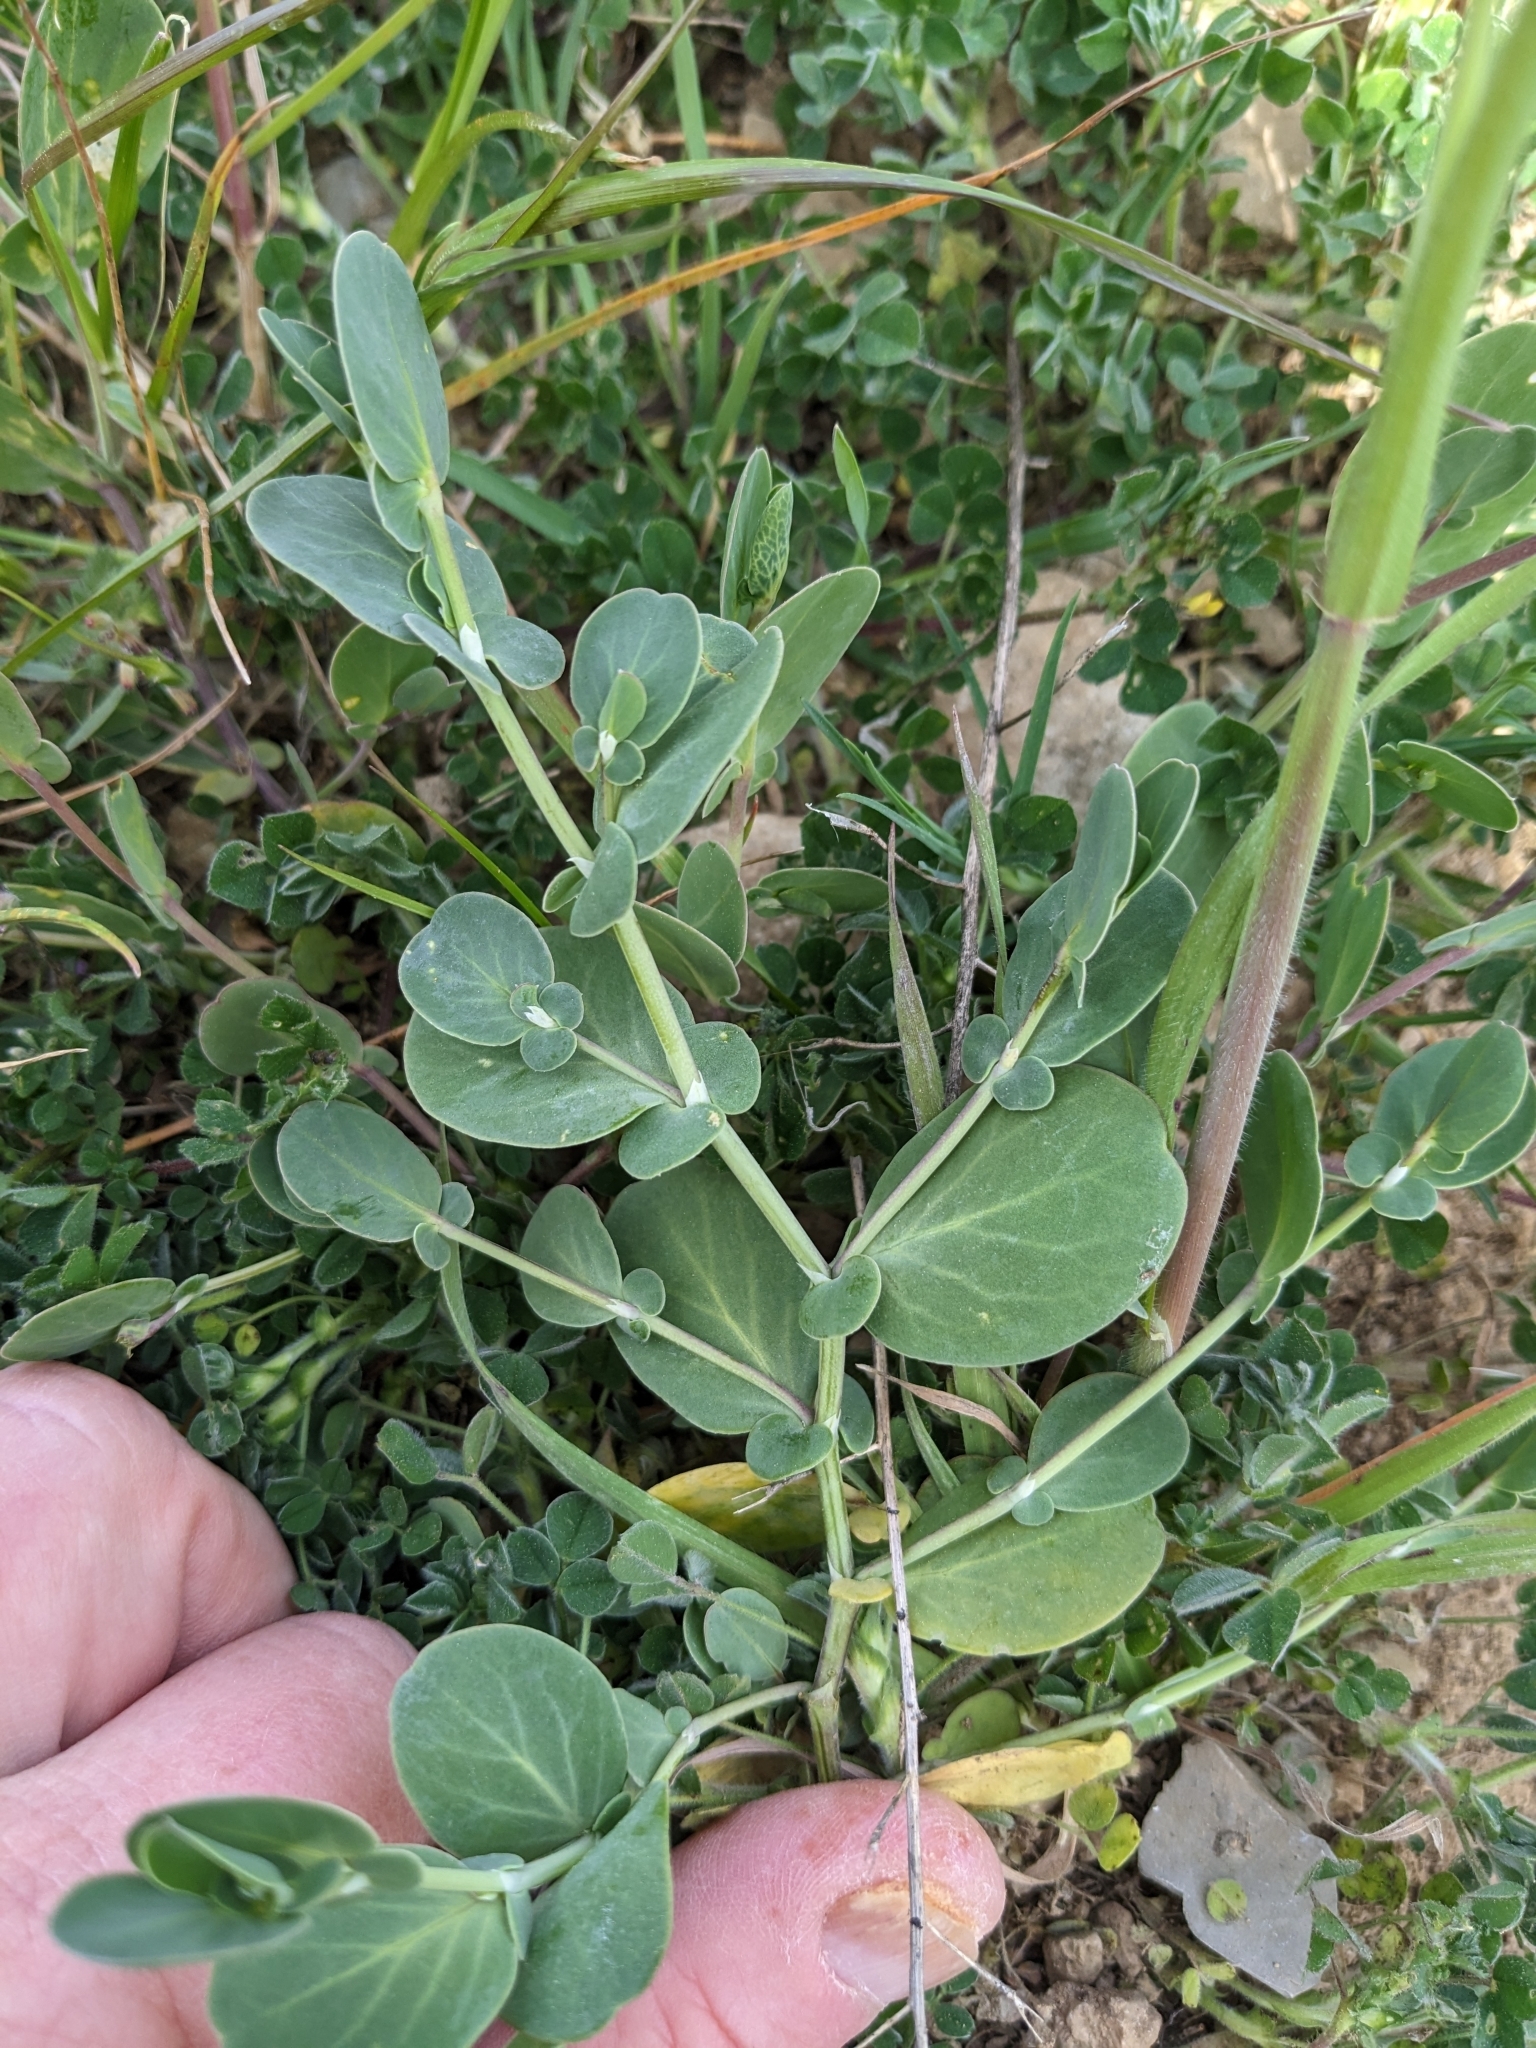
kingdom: Plantae
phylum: Tracheophyta
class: Magnoliopsida
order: Fabales
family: Fabaceae
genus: Coronilla
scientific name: Coronilla scorpioides
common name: Annual scorpion-vetch
